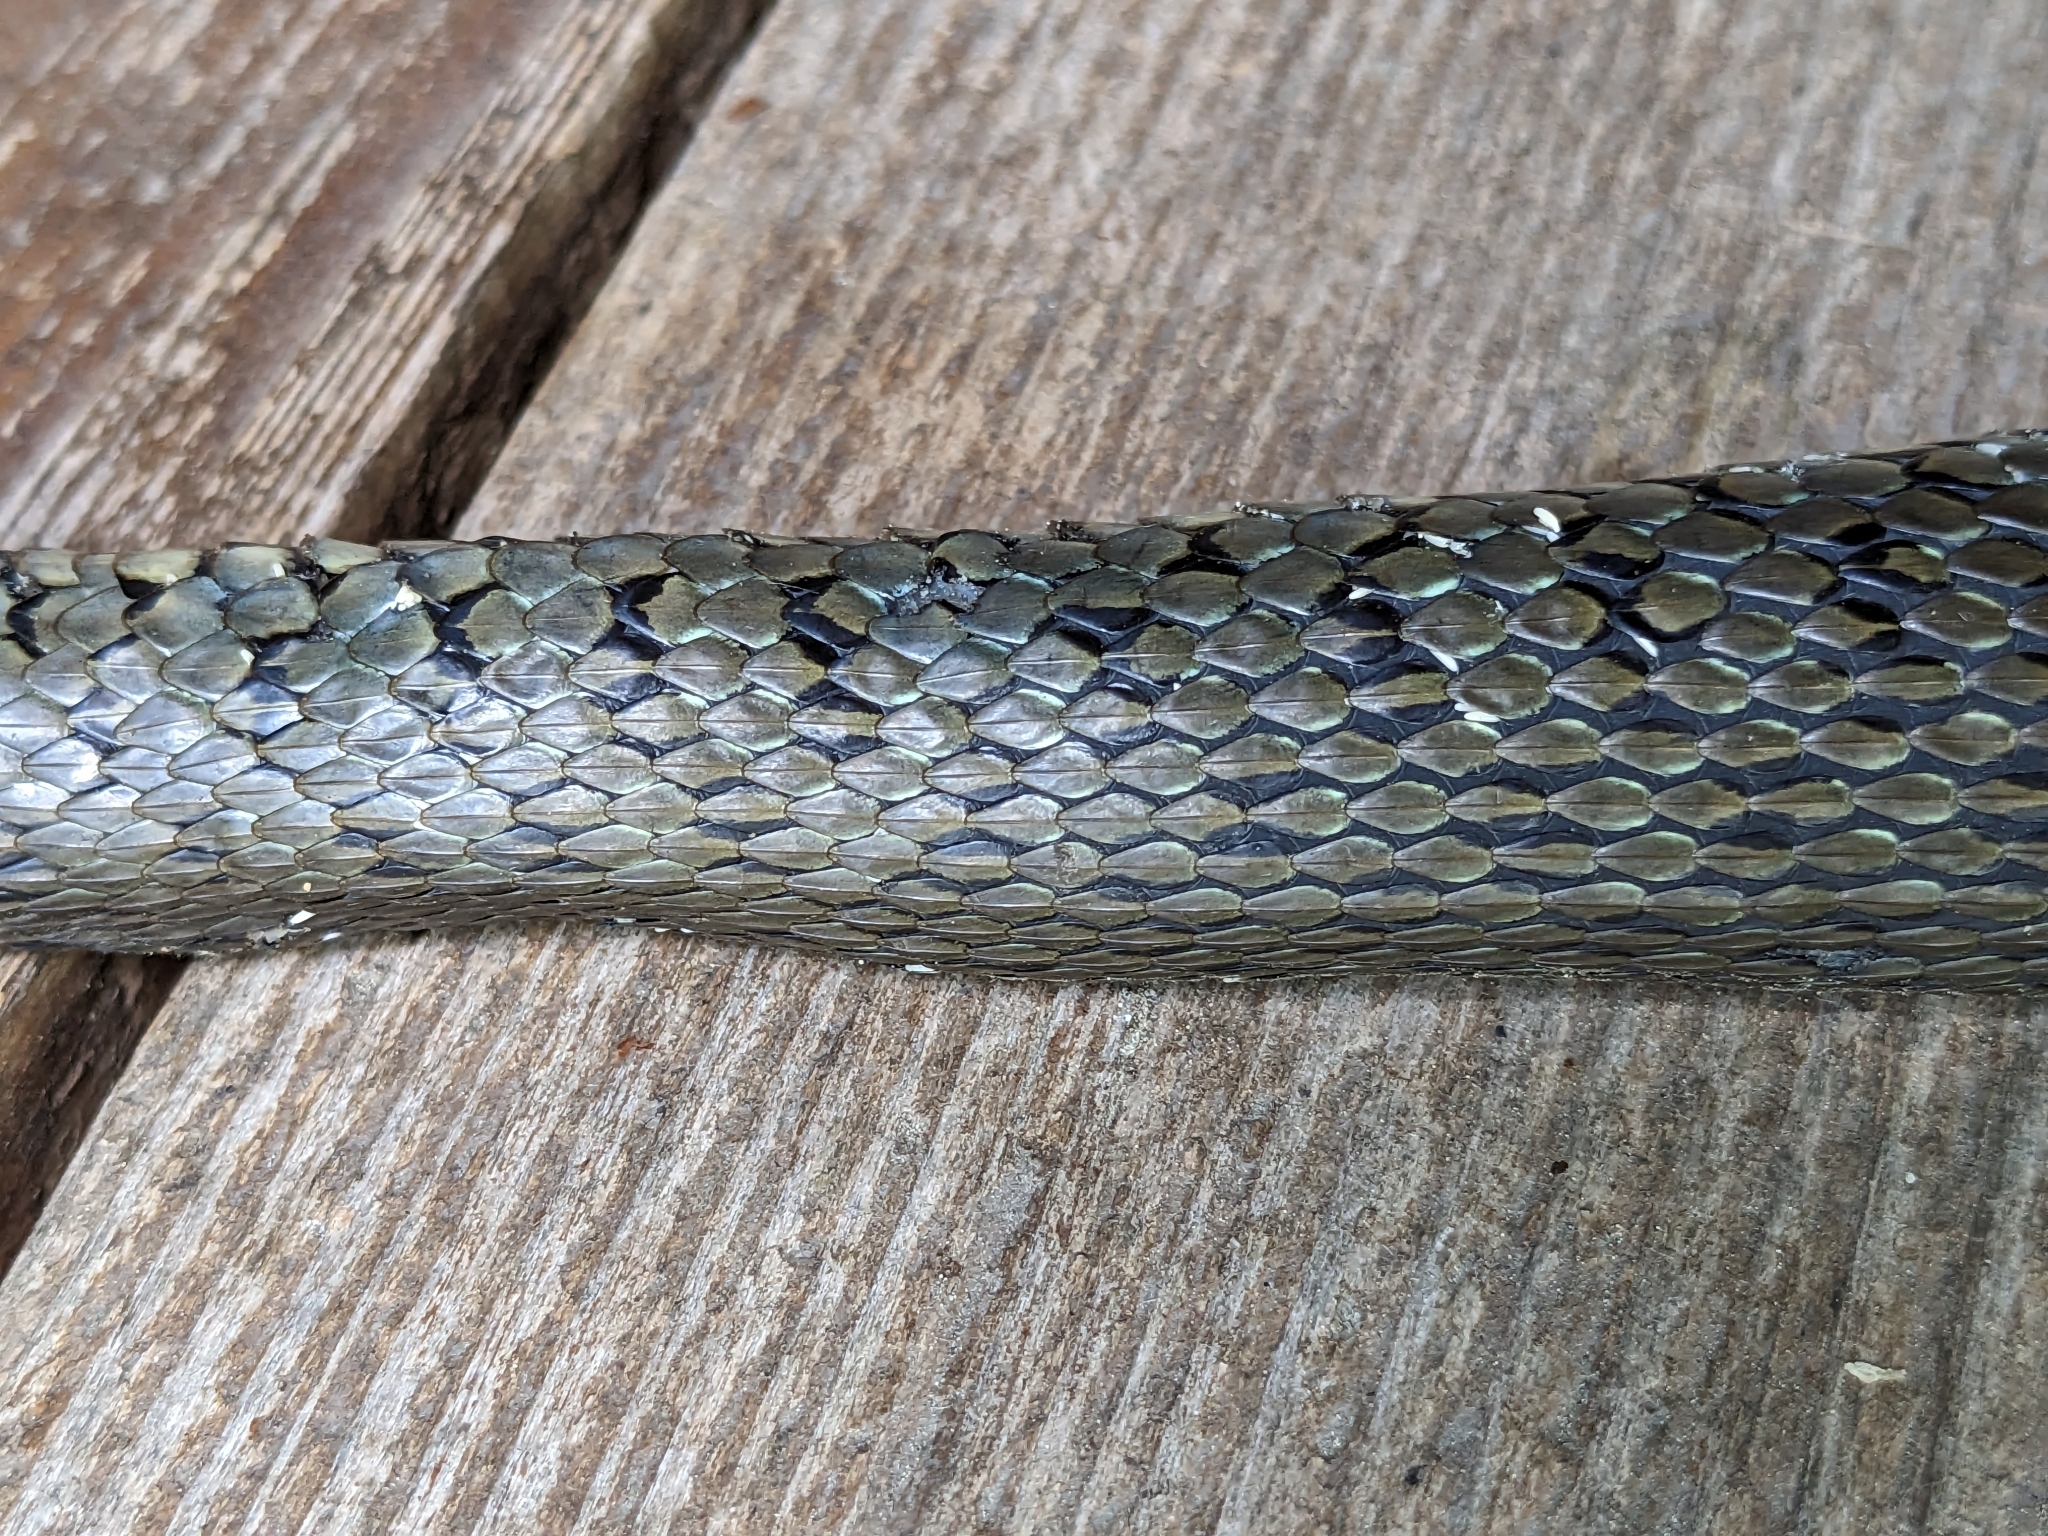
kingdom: Animalia
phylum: Chordata
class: Squamata
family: Colubridae
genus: Natrix
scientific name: Natrix natrix
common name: Grass snake
